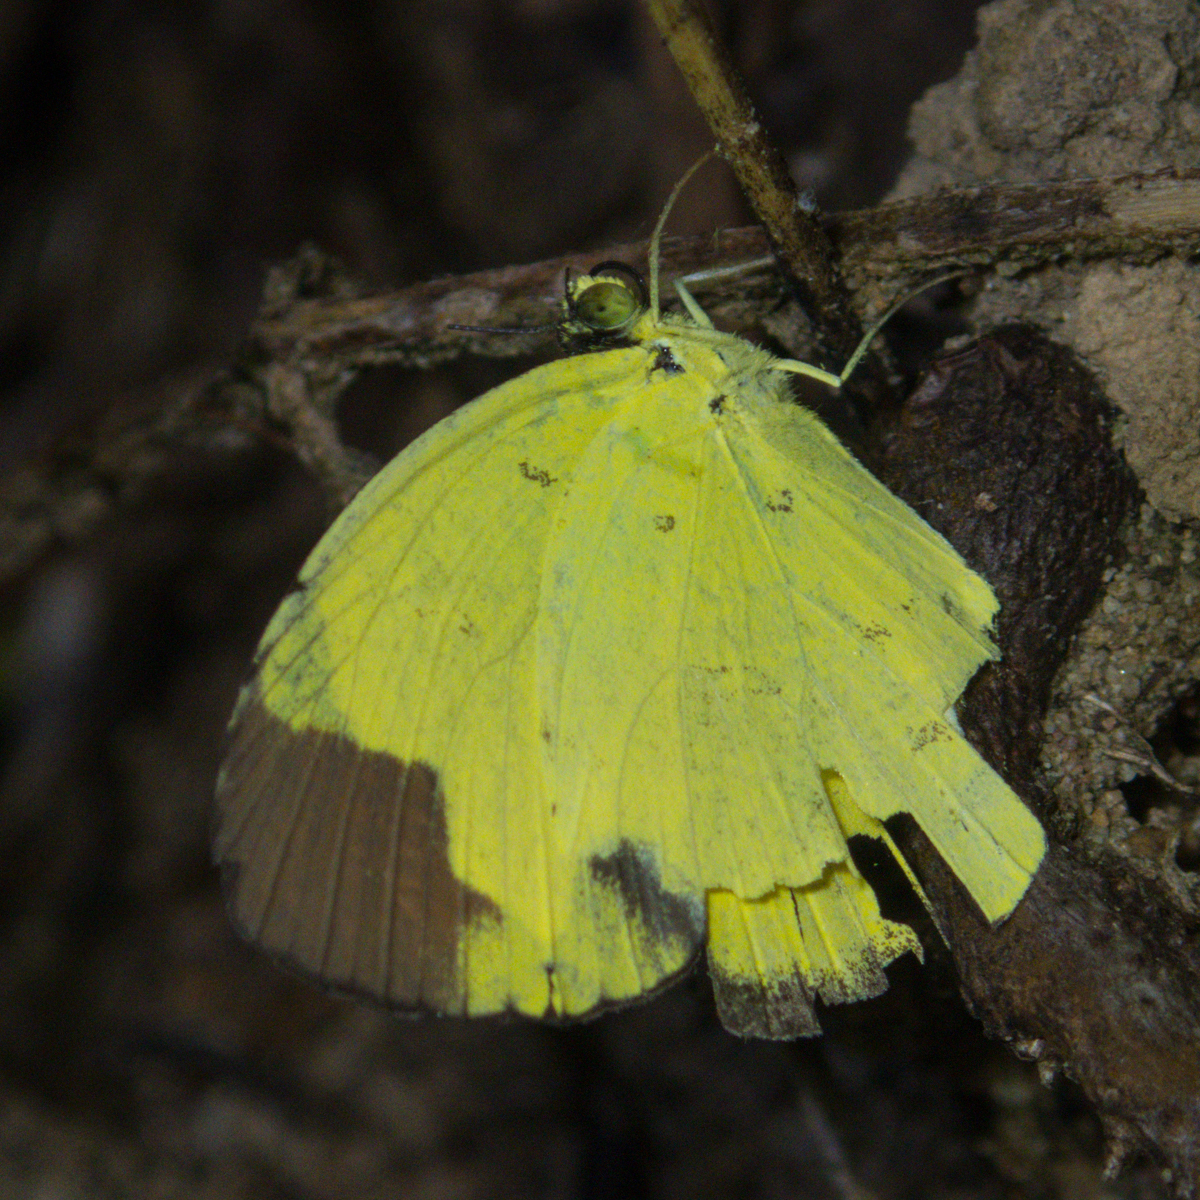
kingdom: Animalia
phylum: Arthropoda
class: Insecta
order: Lepidoptera
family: Pieridae
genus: Eurema
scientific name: Eurema sari
